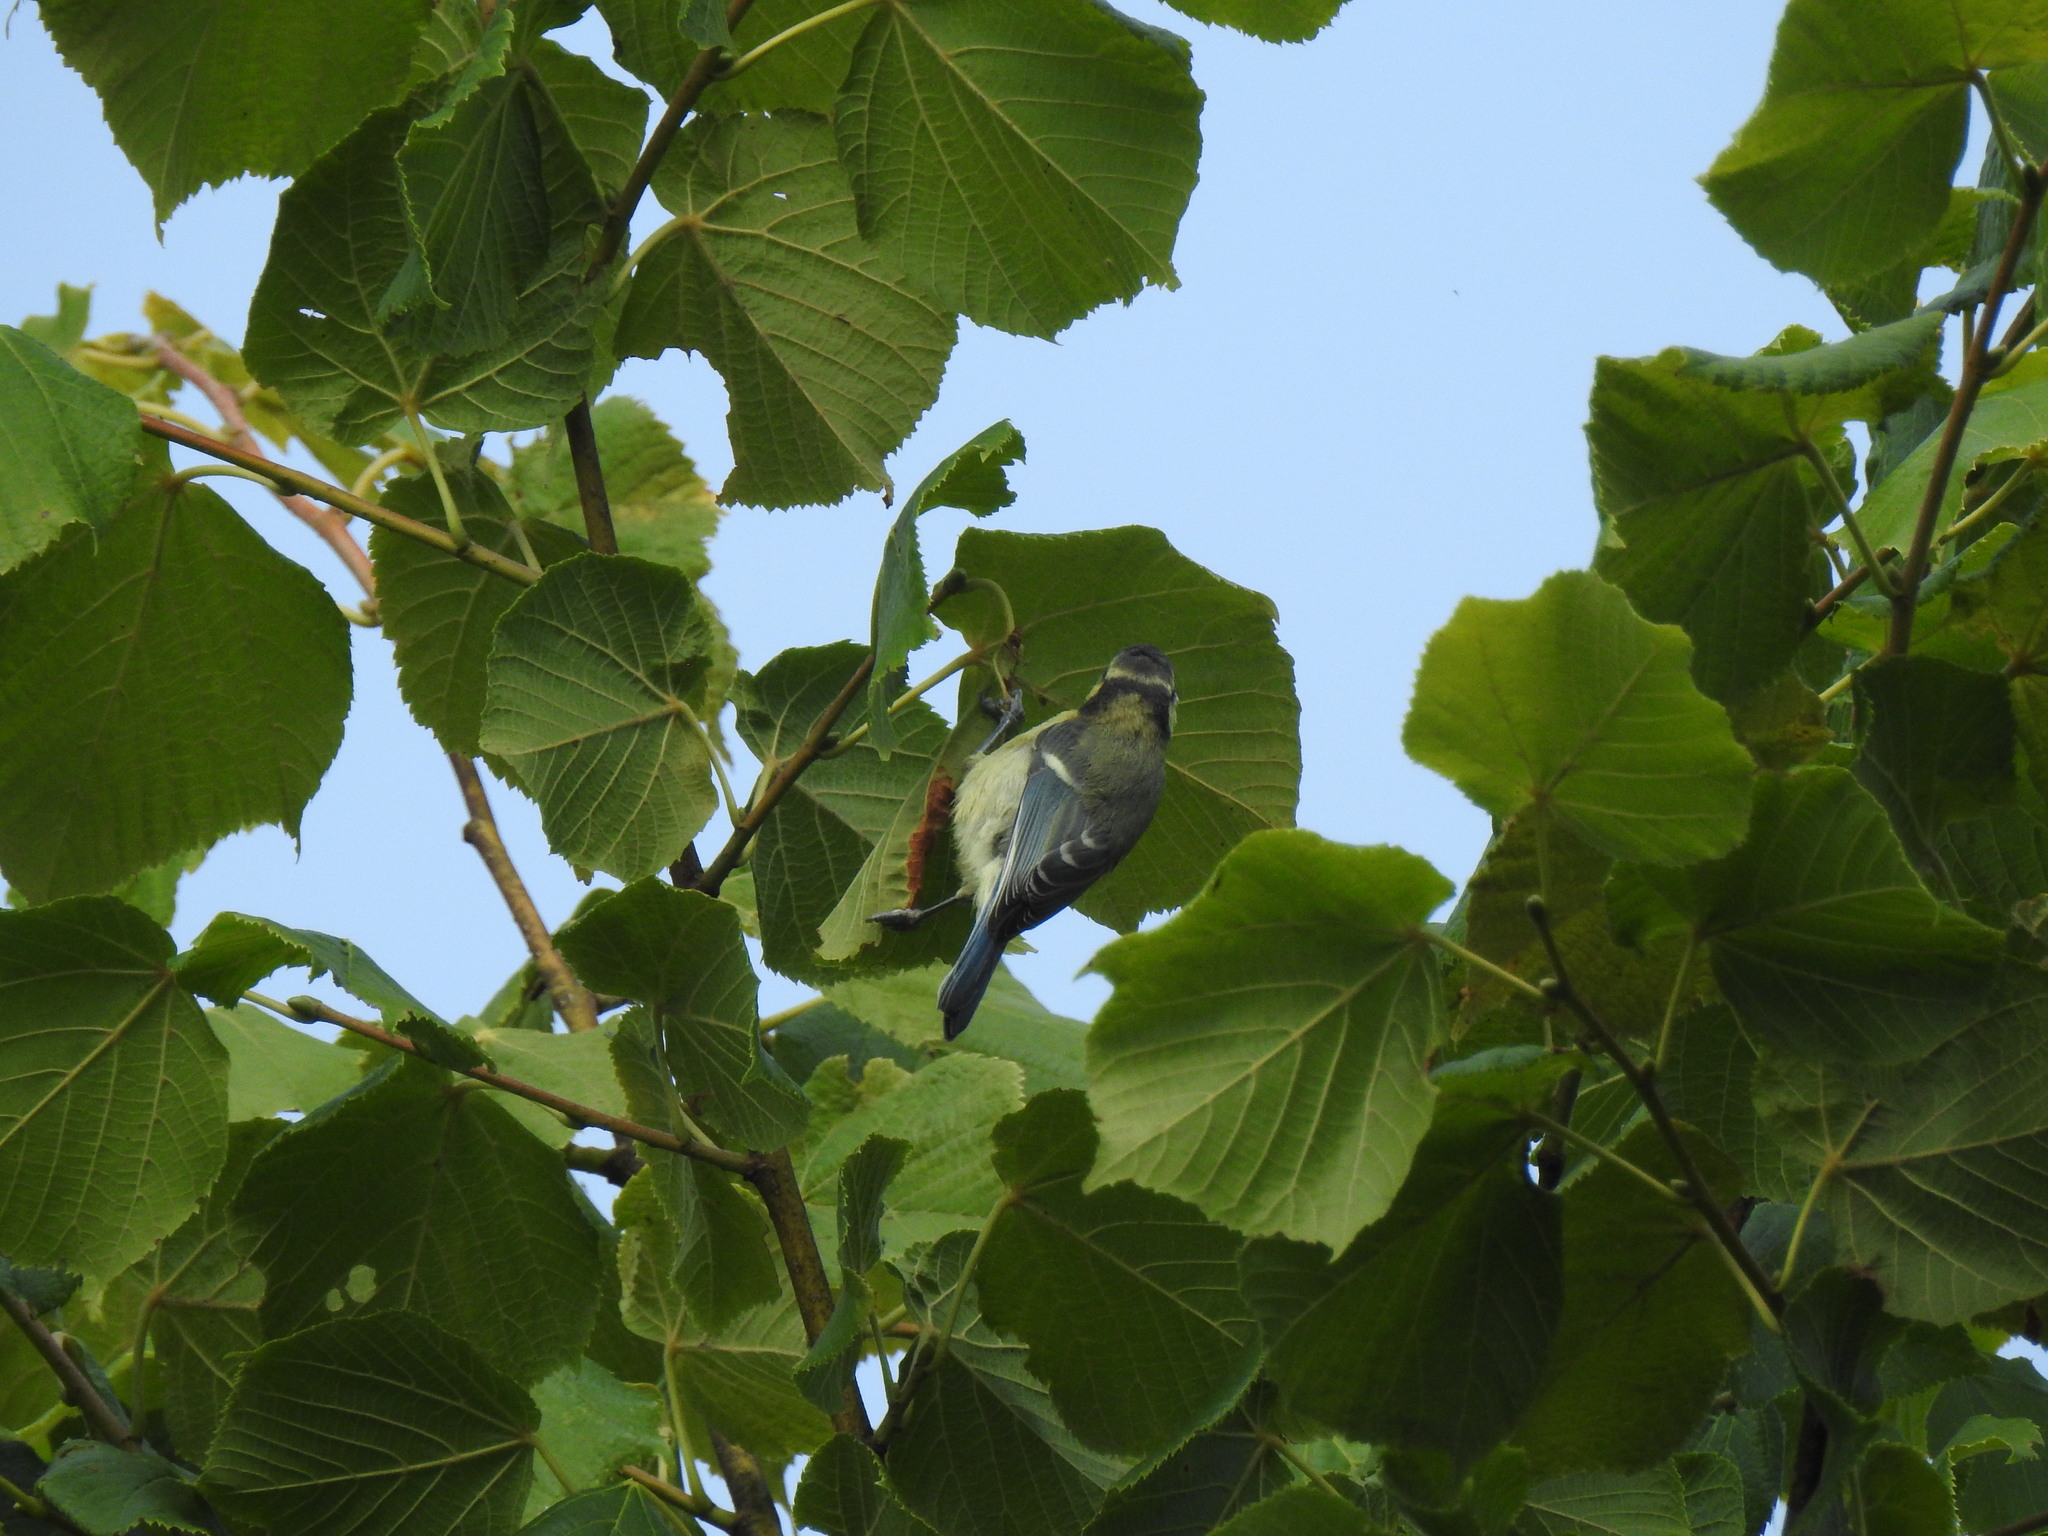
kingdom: Animalia
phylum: Chordata
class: Aves
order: Passeriformes
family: Paridae
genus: Cyanistes
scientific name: Cyanistes caeruleus
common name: Eurasian blue tit
